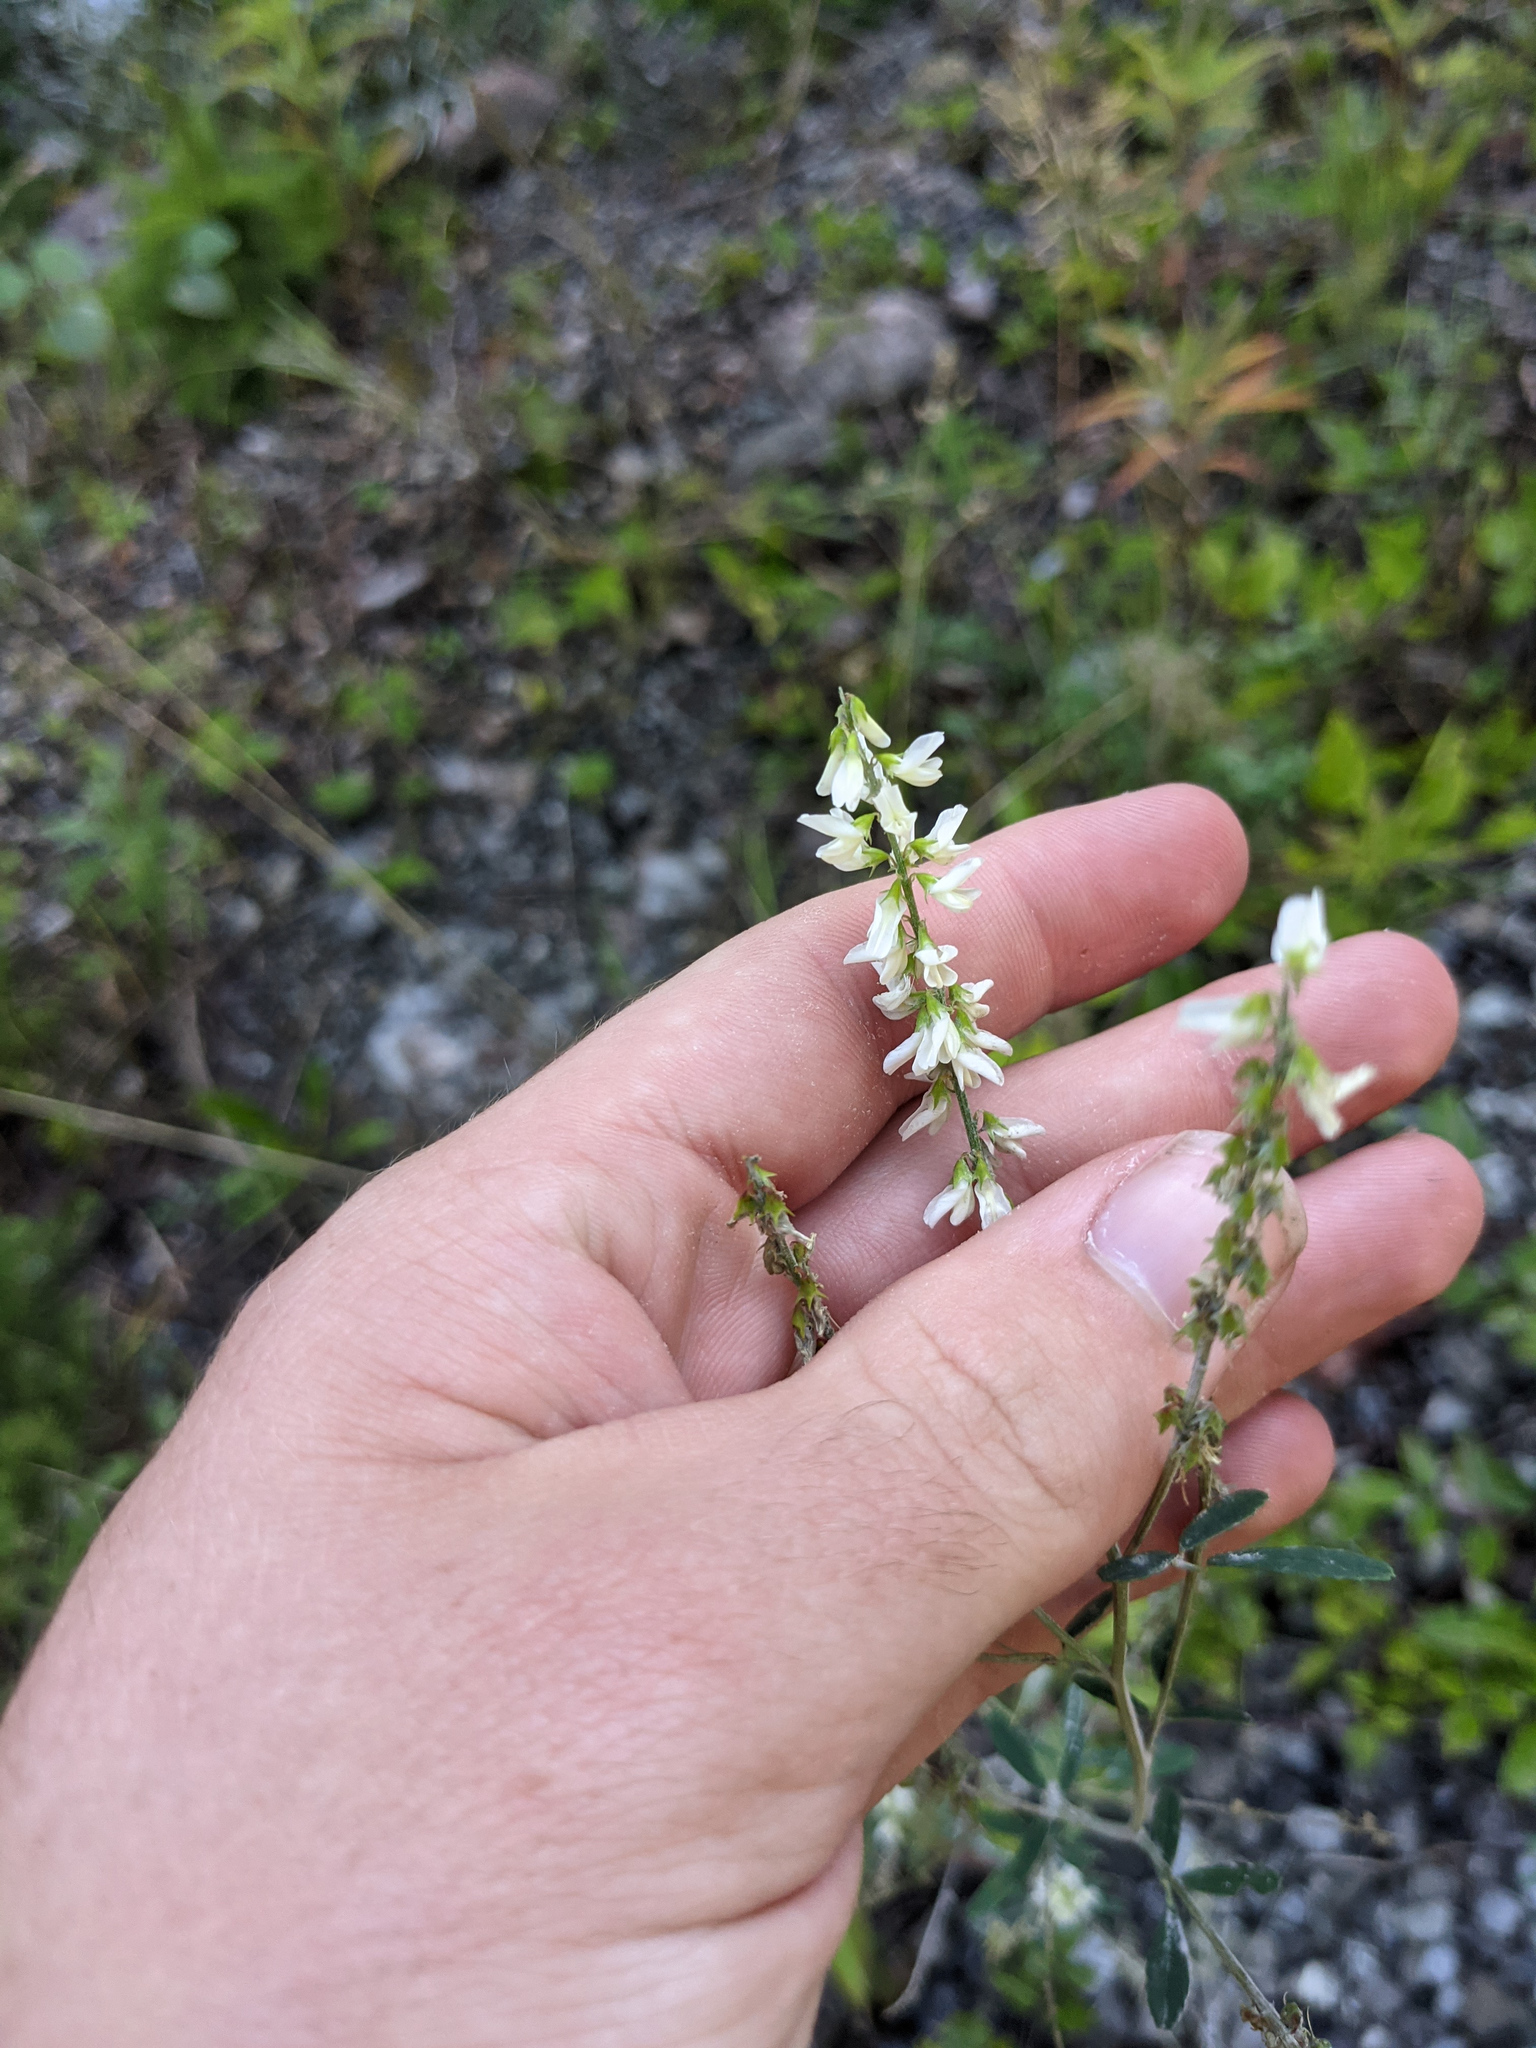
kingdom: Plantae
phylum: Tracheophyta
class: Magnoliopsida
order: Fabales
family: Fabaceae
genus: Melilotus
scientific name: Melilotus albus
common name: White melilot
